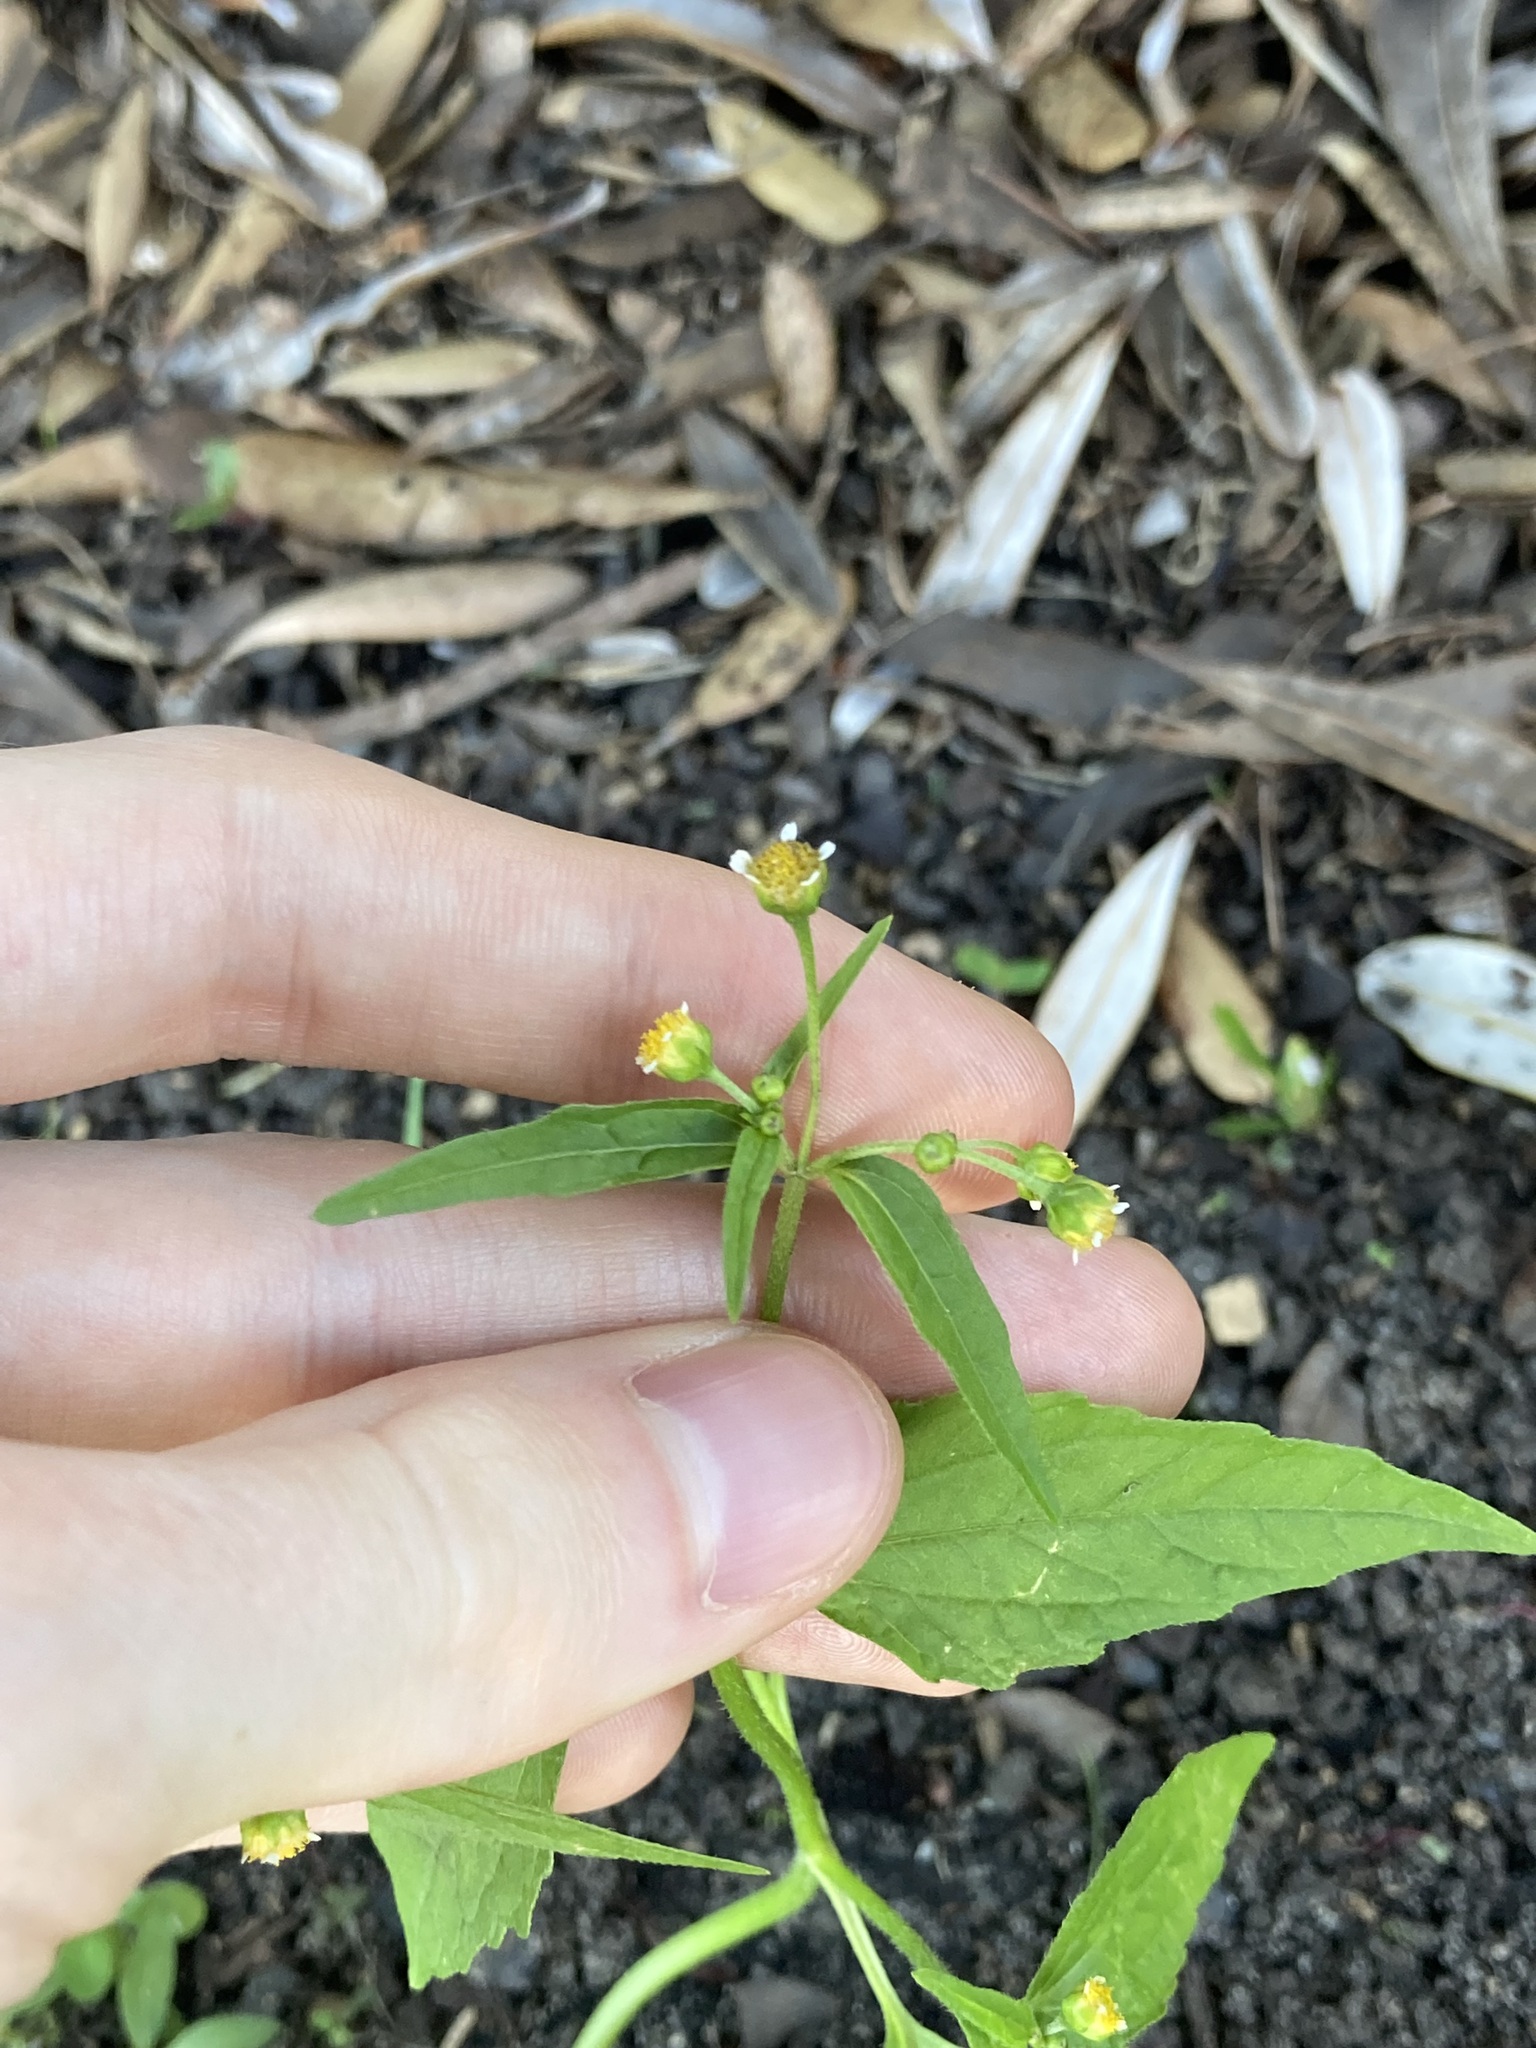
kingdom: Plantae
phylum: Tracheophyta
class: Magnoliopsida
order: Asterales
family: Asteraceae
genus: Galinsoga
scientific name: Galinsoga parviflora
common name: Gallant soldier
